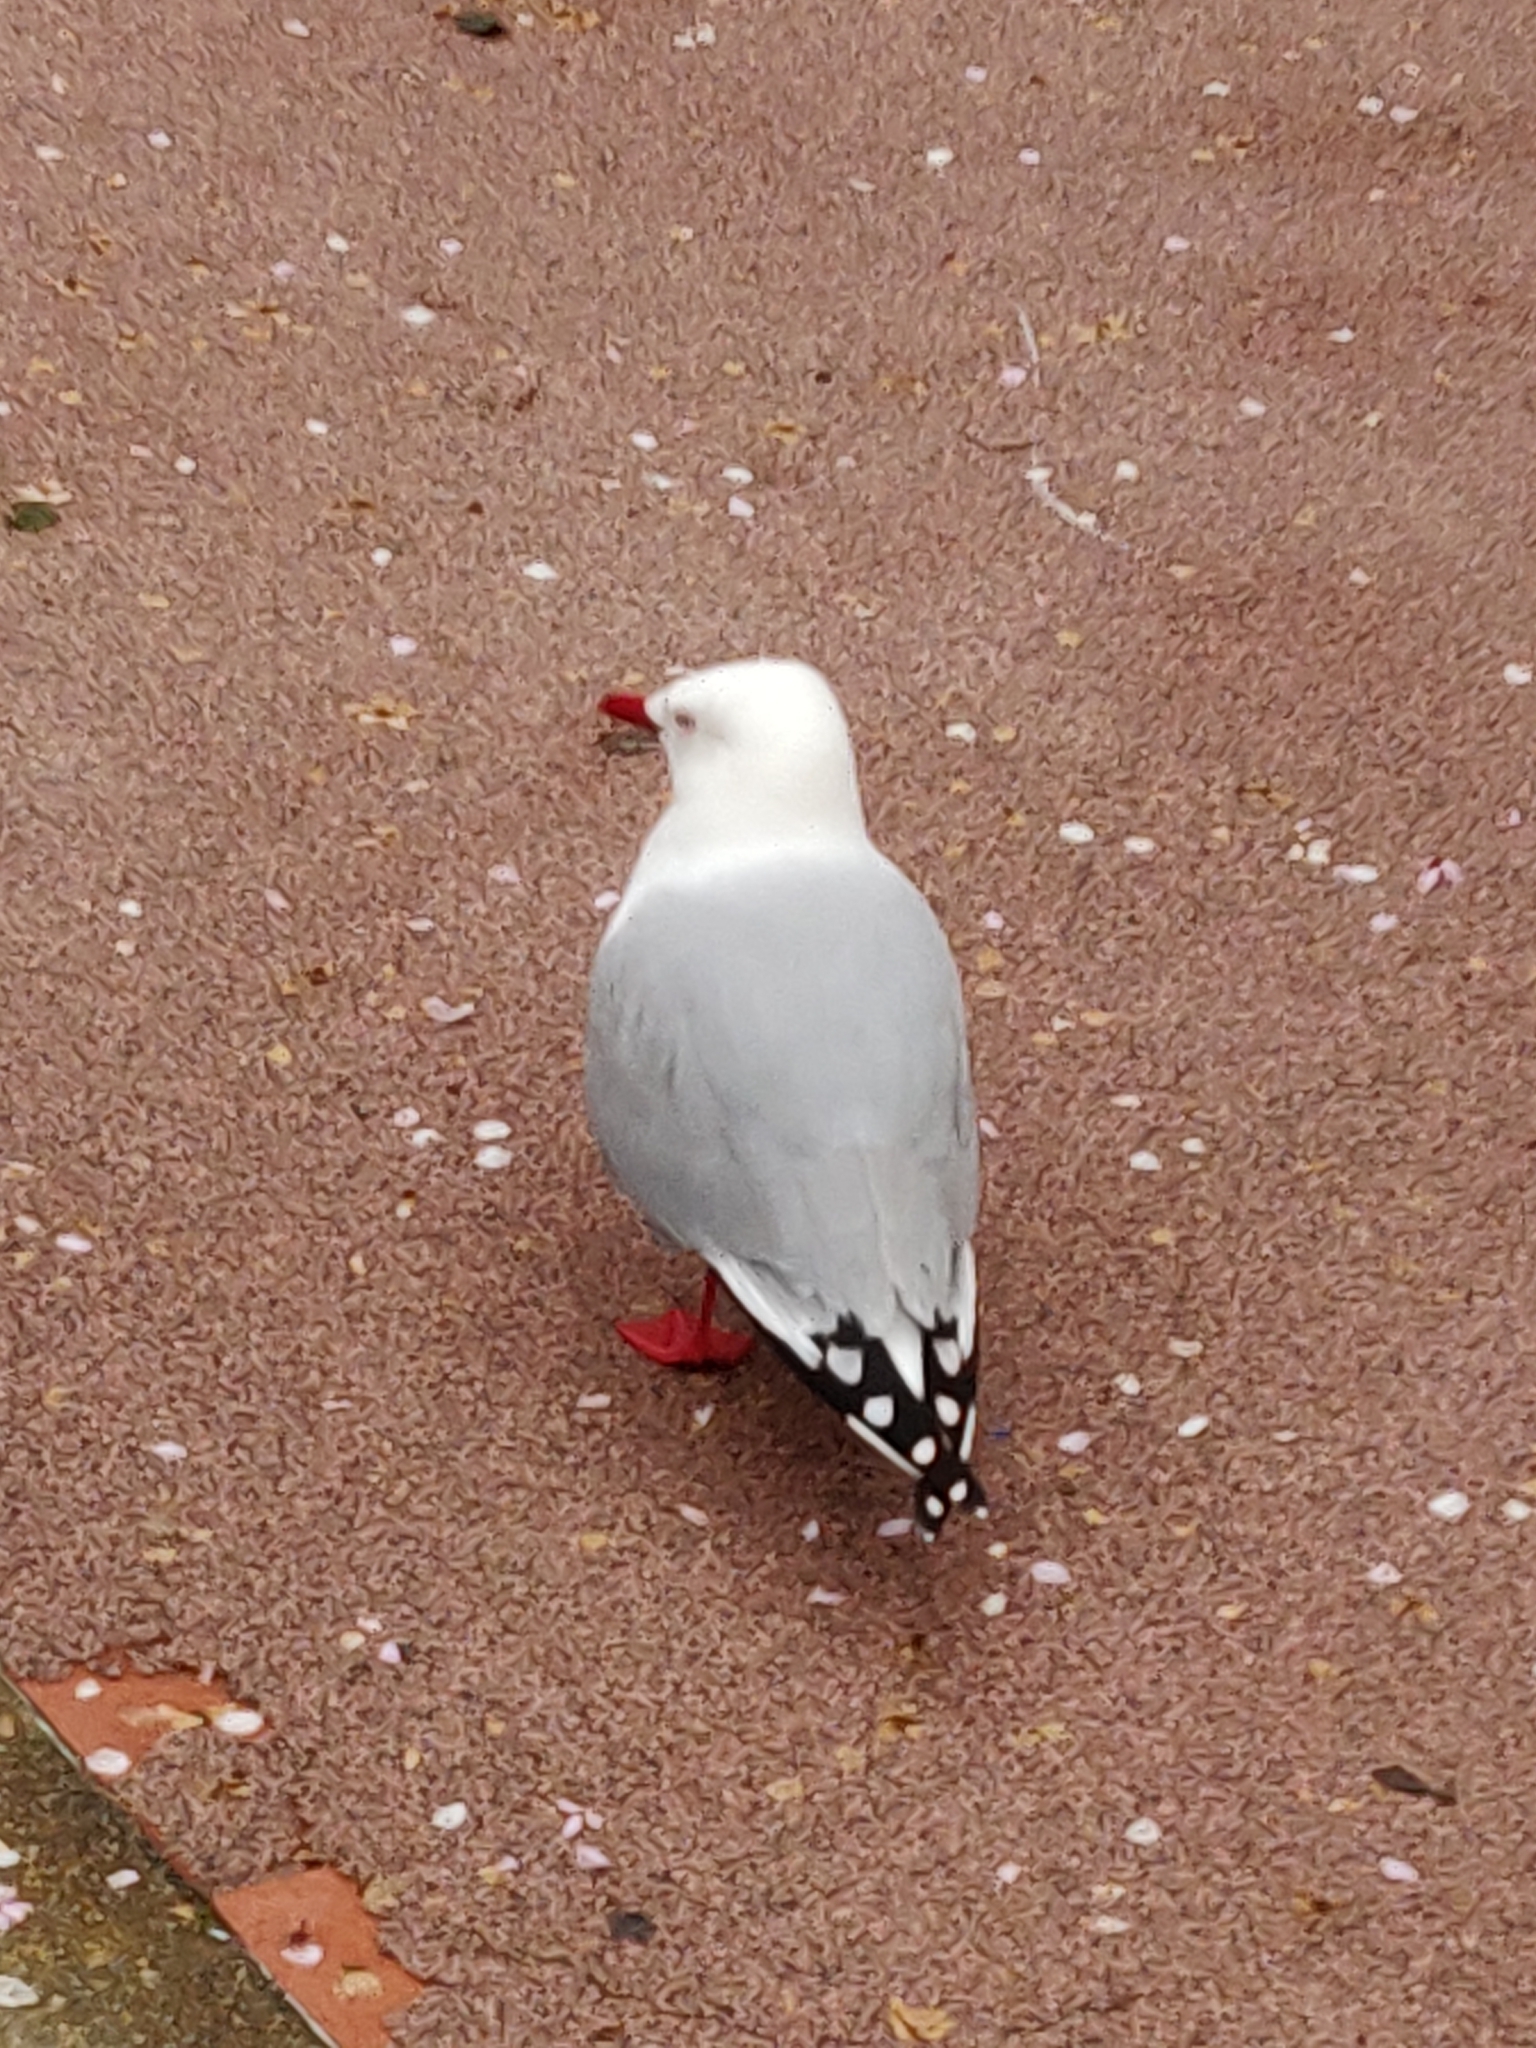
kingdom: Animalia
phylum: Chordata
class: Aves
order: Charadriiformes
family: Laridae
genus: Chroicocephalus
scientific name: Chroicocephalus novaehollandiae
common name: Silver gull
